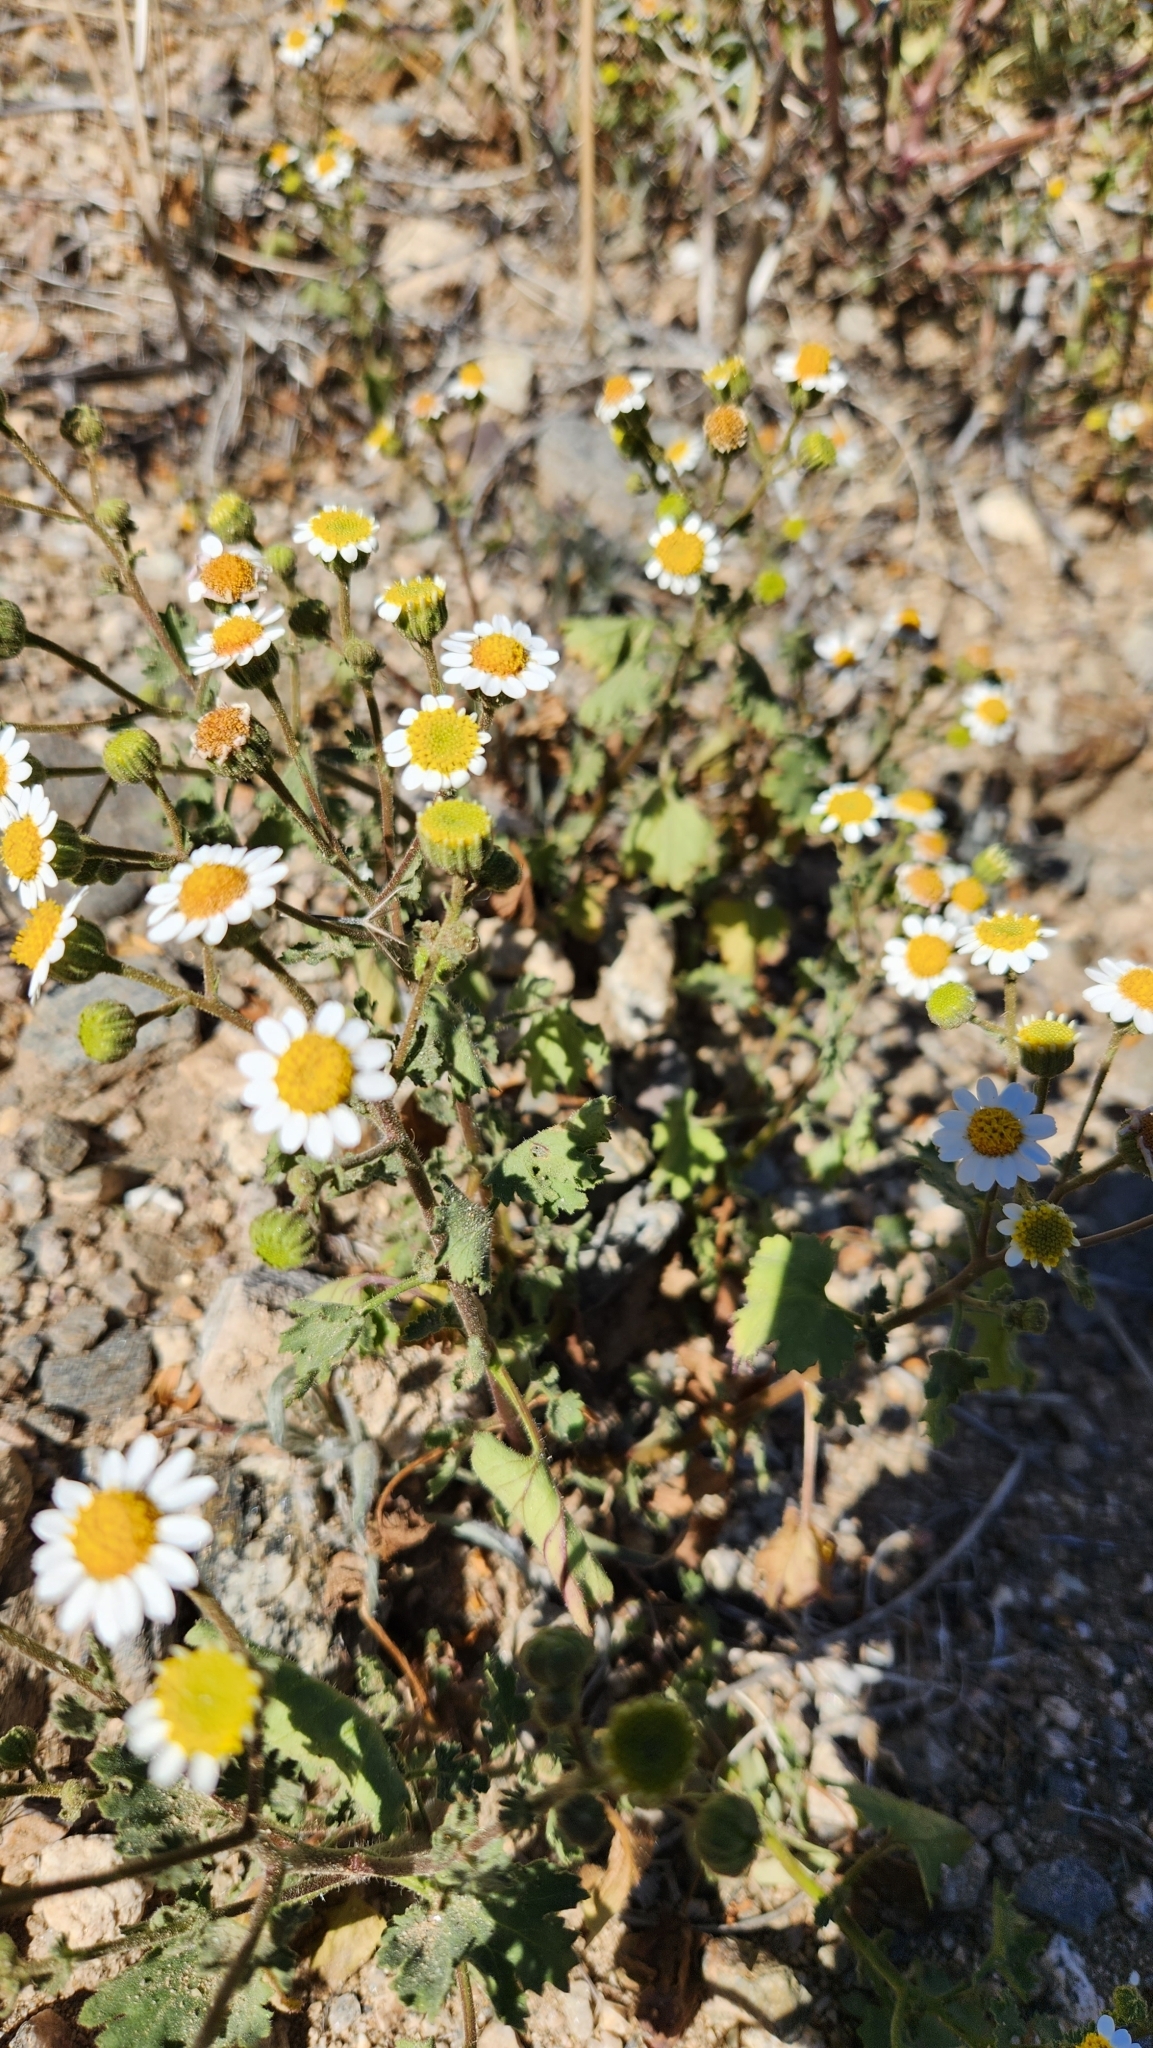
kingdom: Plantae
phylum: Tracheophyta
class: Magnoliopsida
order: Asterales
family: Asteraceae
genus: Laphamia
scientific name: Laphamia emoryi
